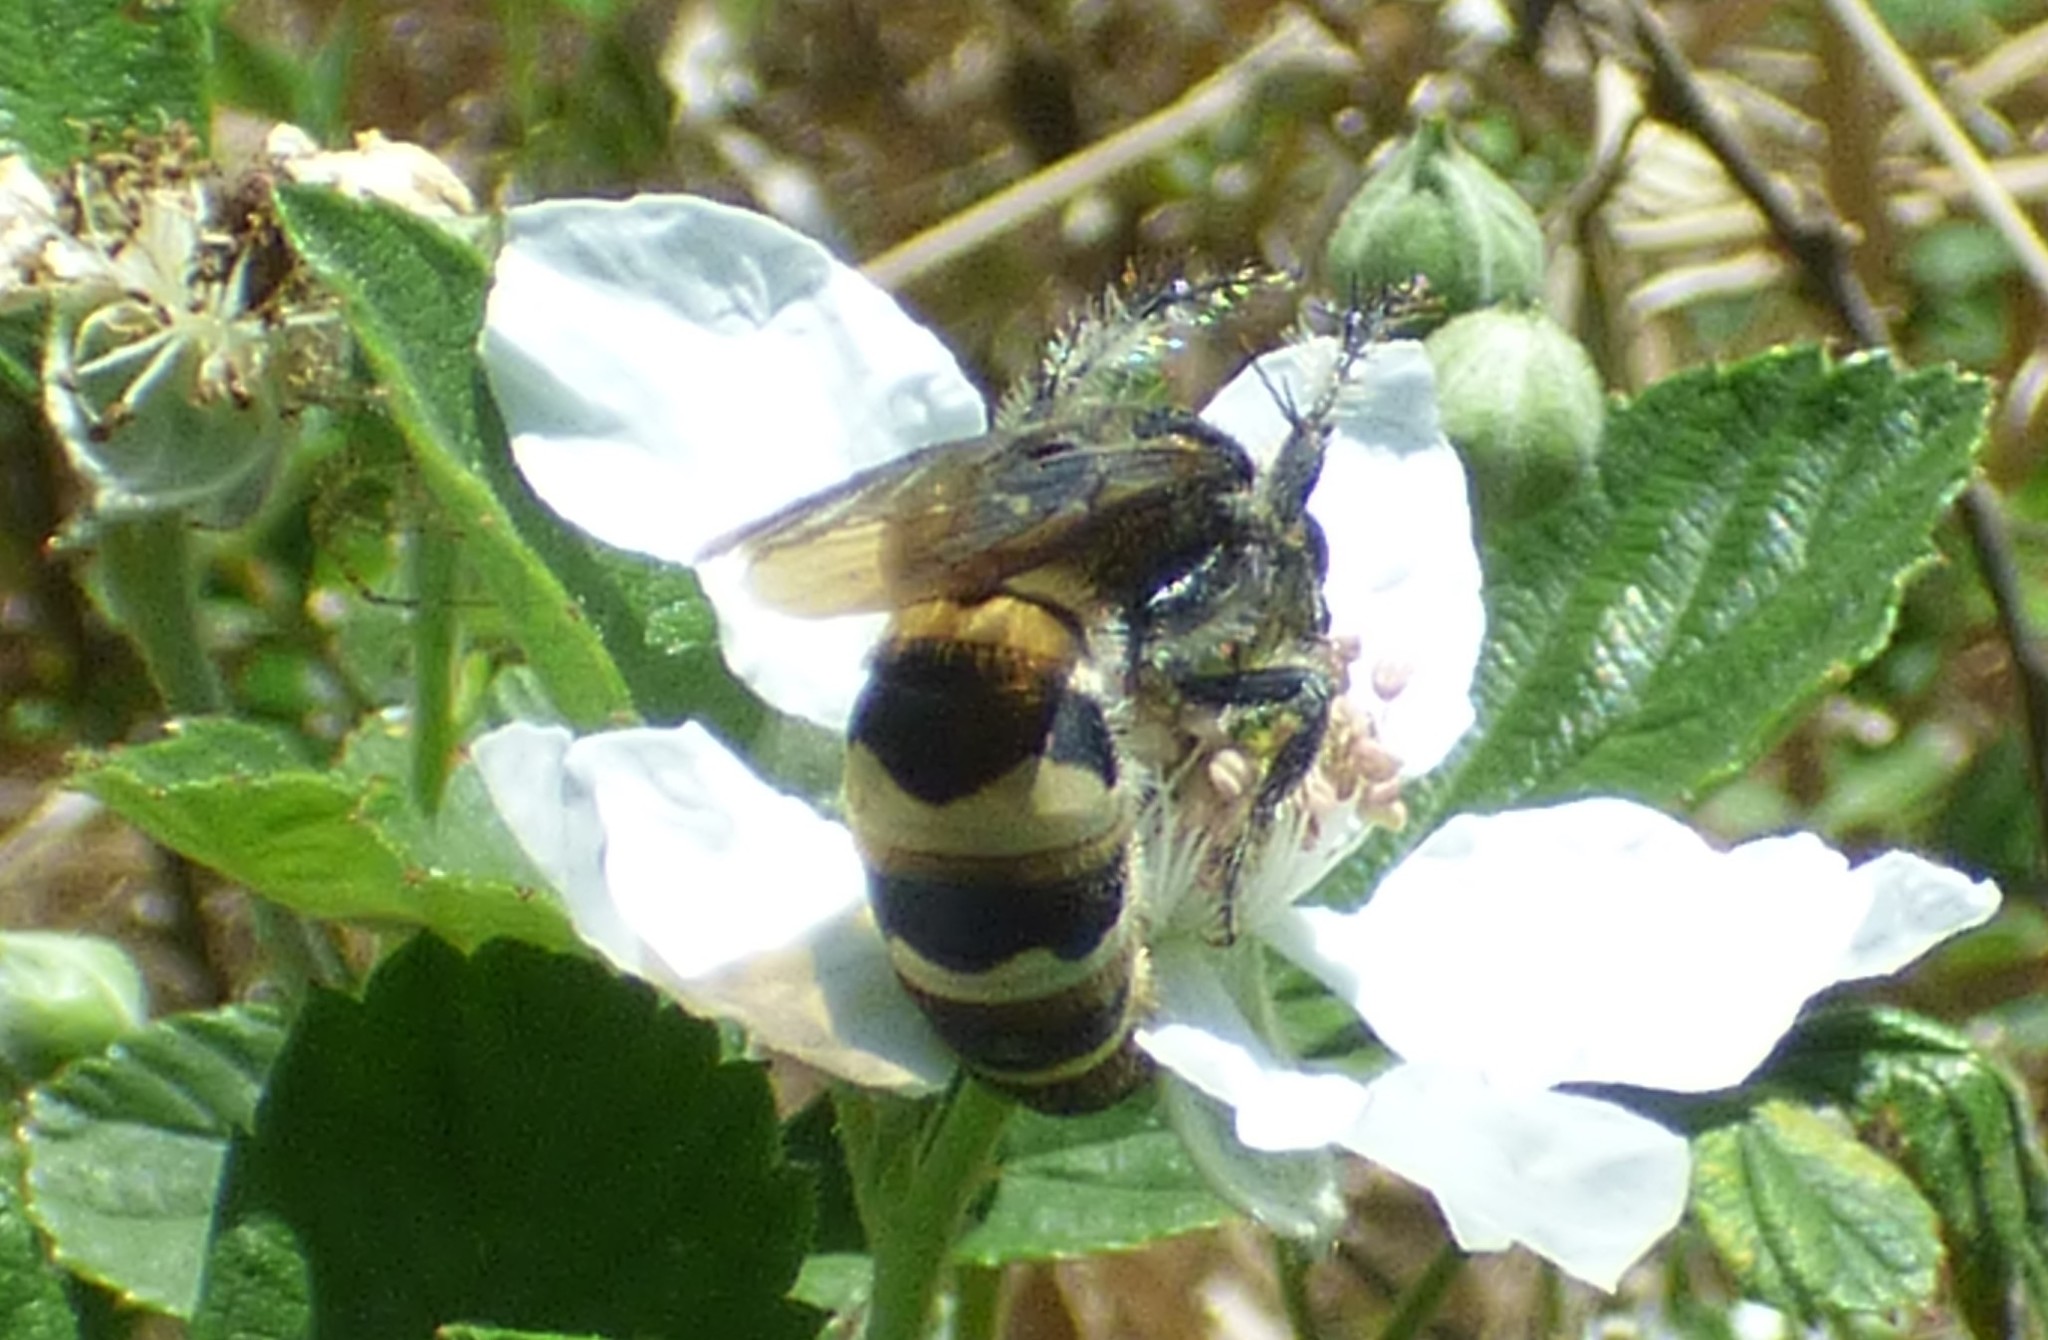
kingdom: Animalia
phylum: Arthropoda
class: Insecta
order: Hymenoptera
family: Scoliidae
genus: Dielis
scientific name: Dielis
